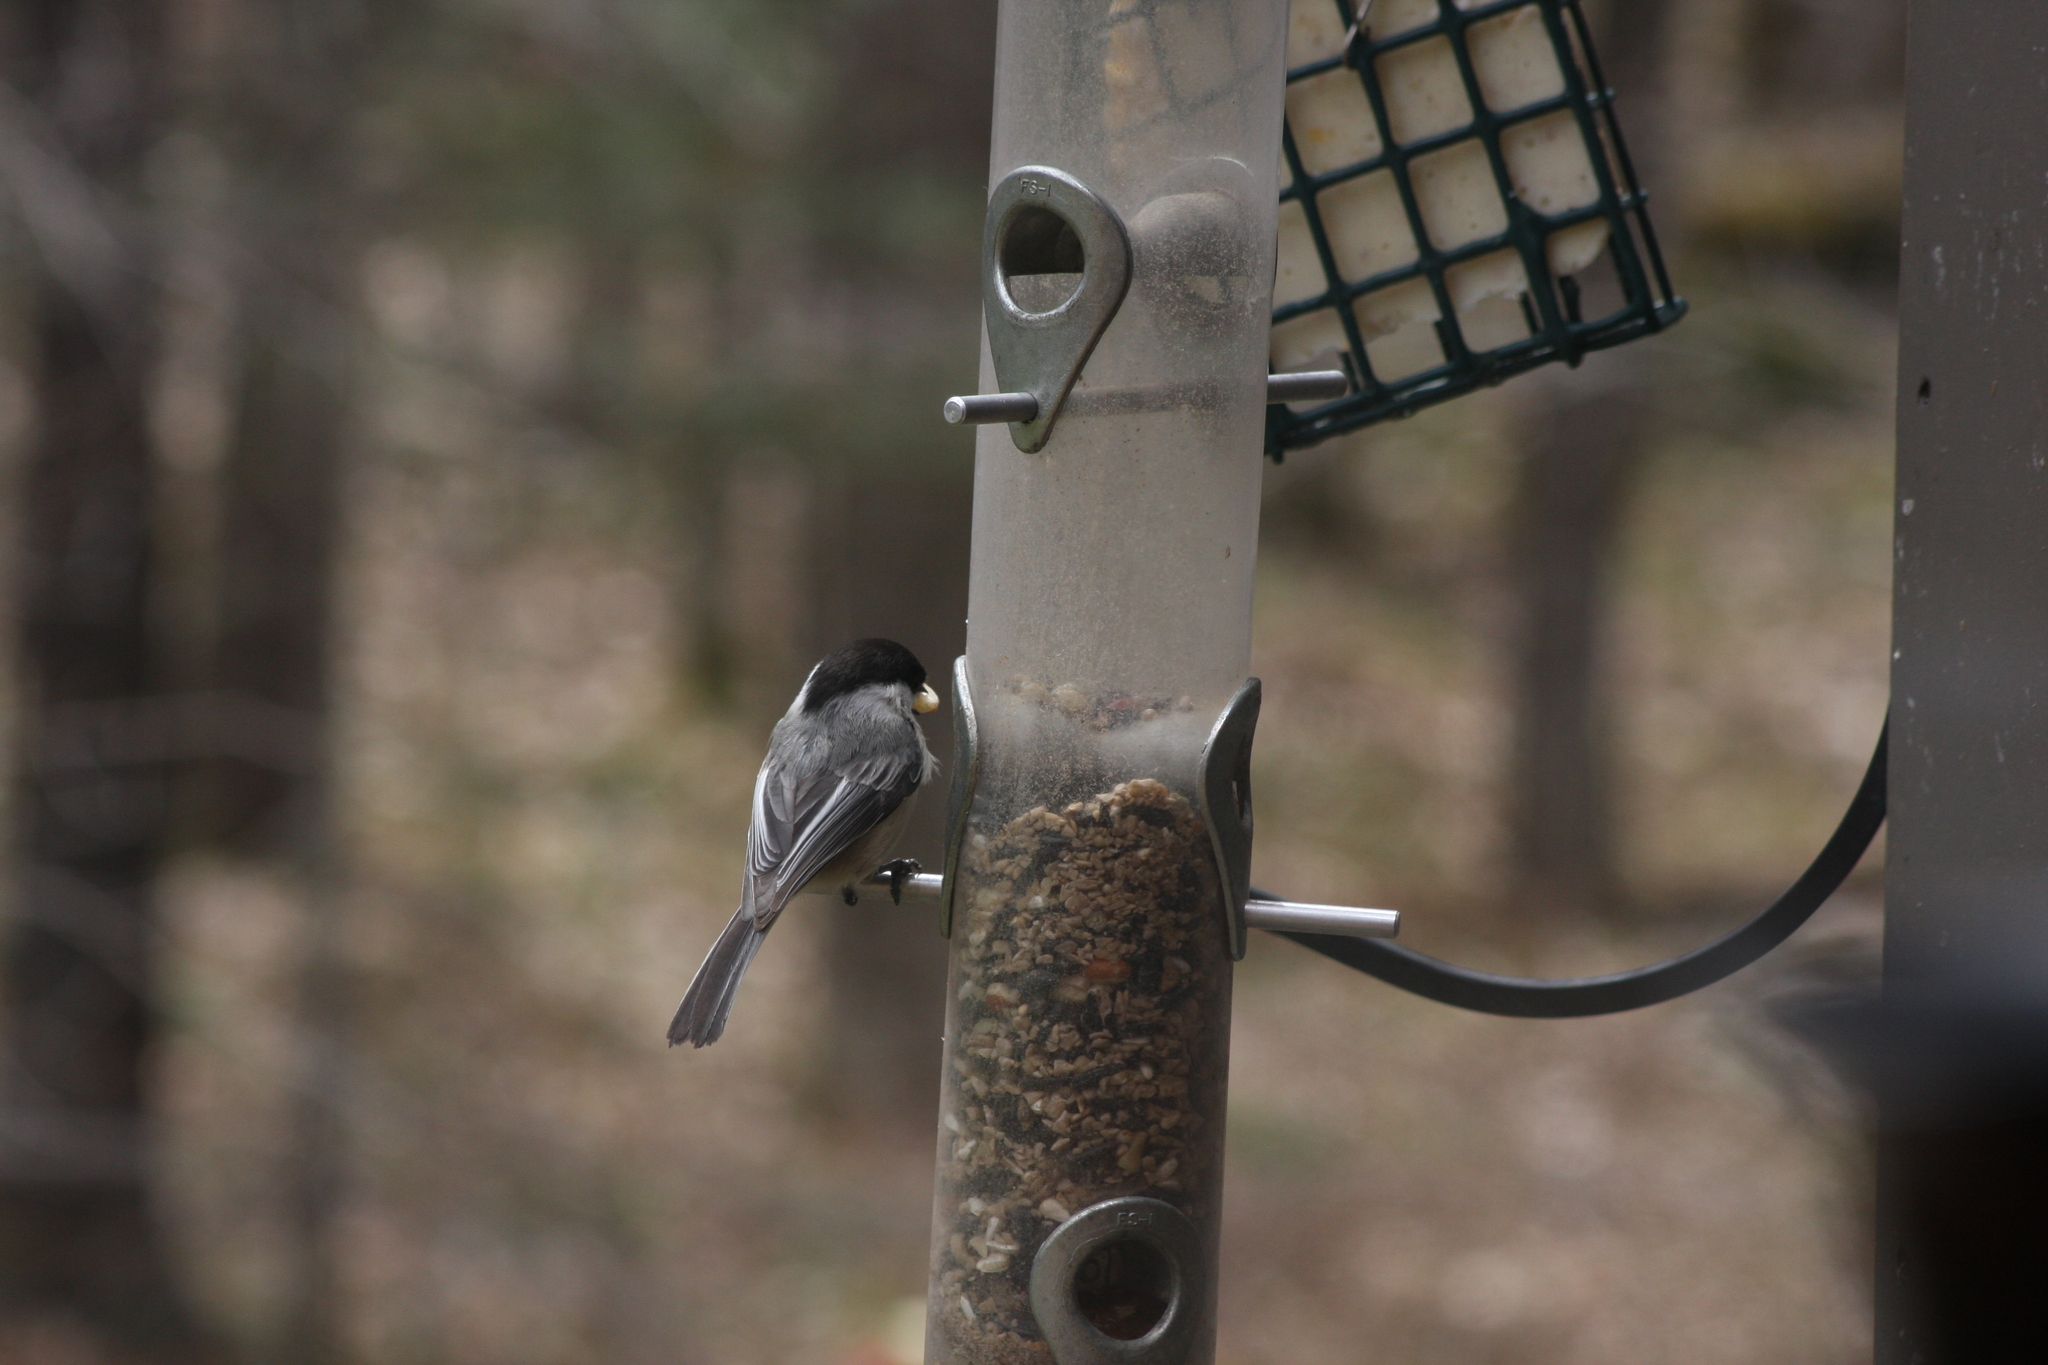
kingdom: Animalia
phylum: Chordata
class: Aves
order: Passeriformes
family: Paridae
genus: Poecile
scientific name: Poecile atricapillus
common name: Black-capped chickadee
